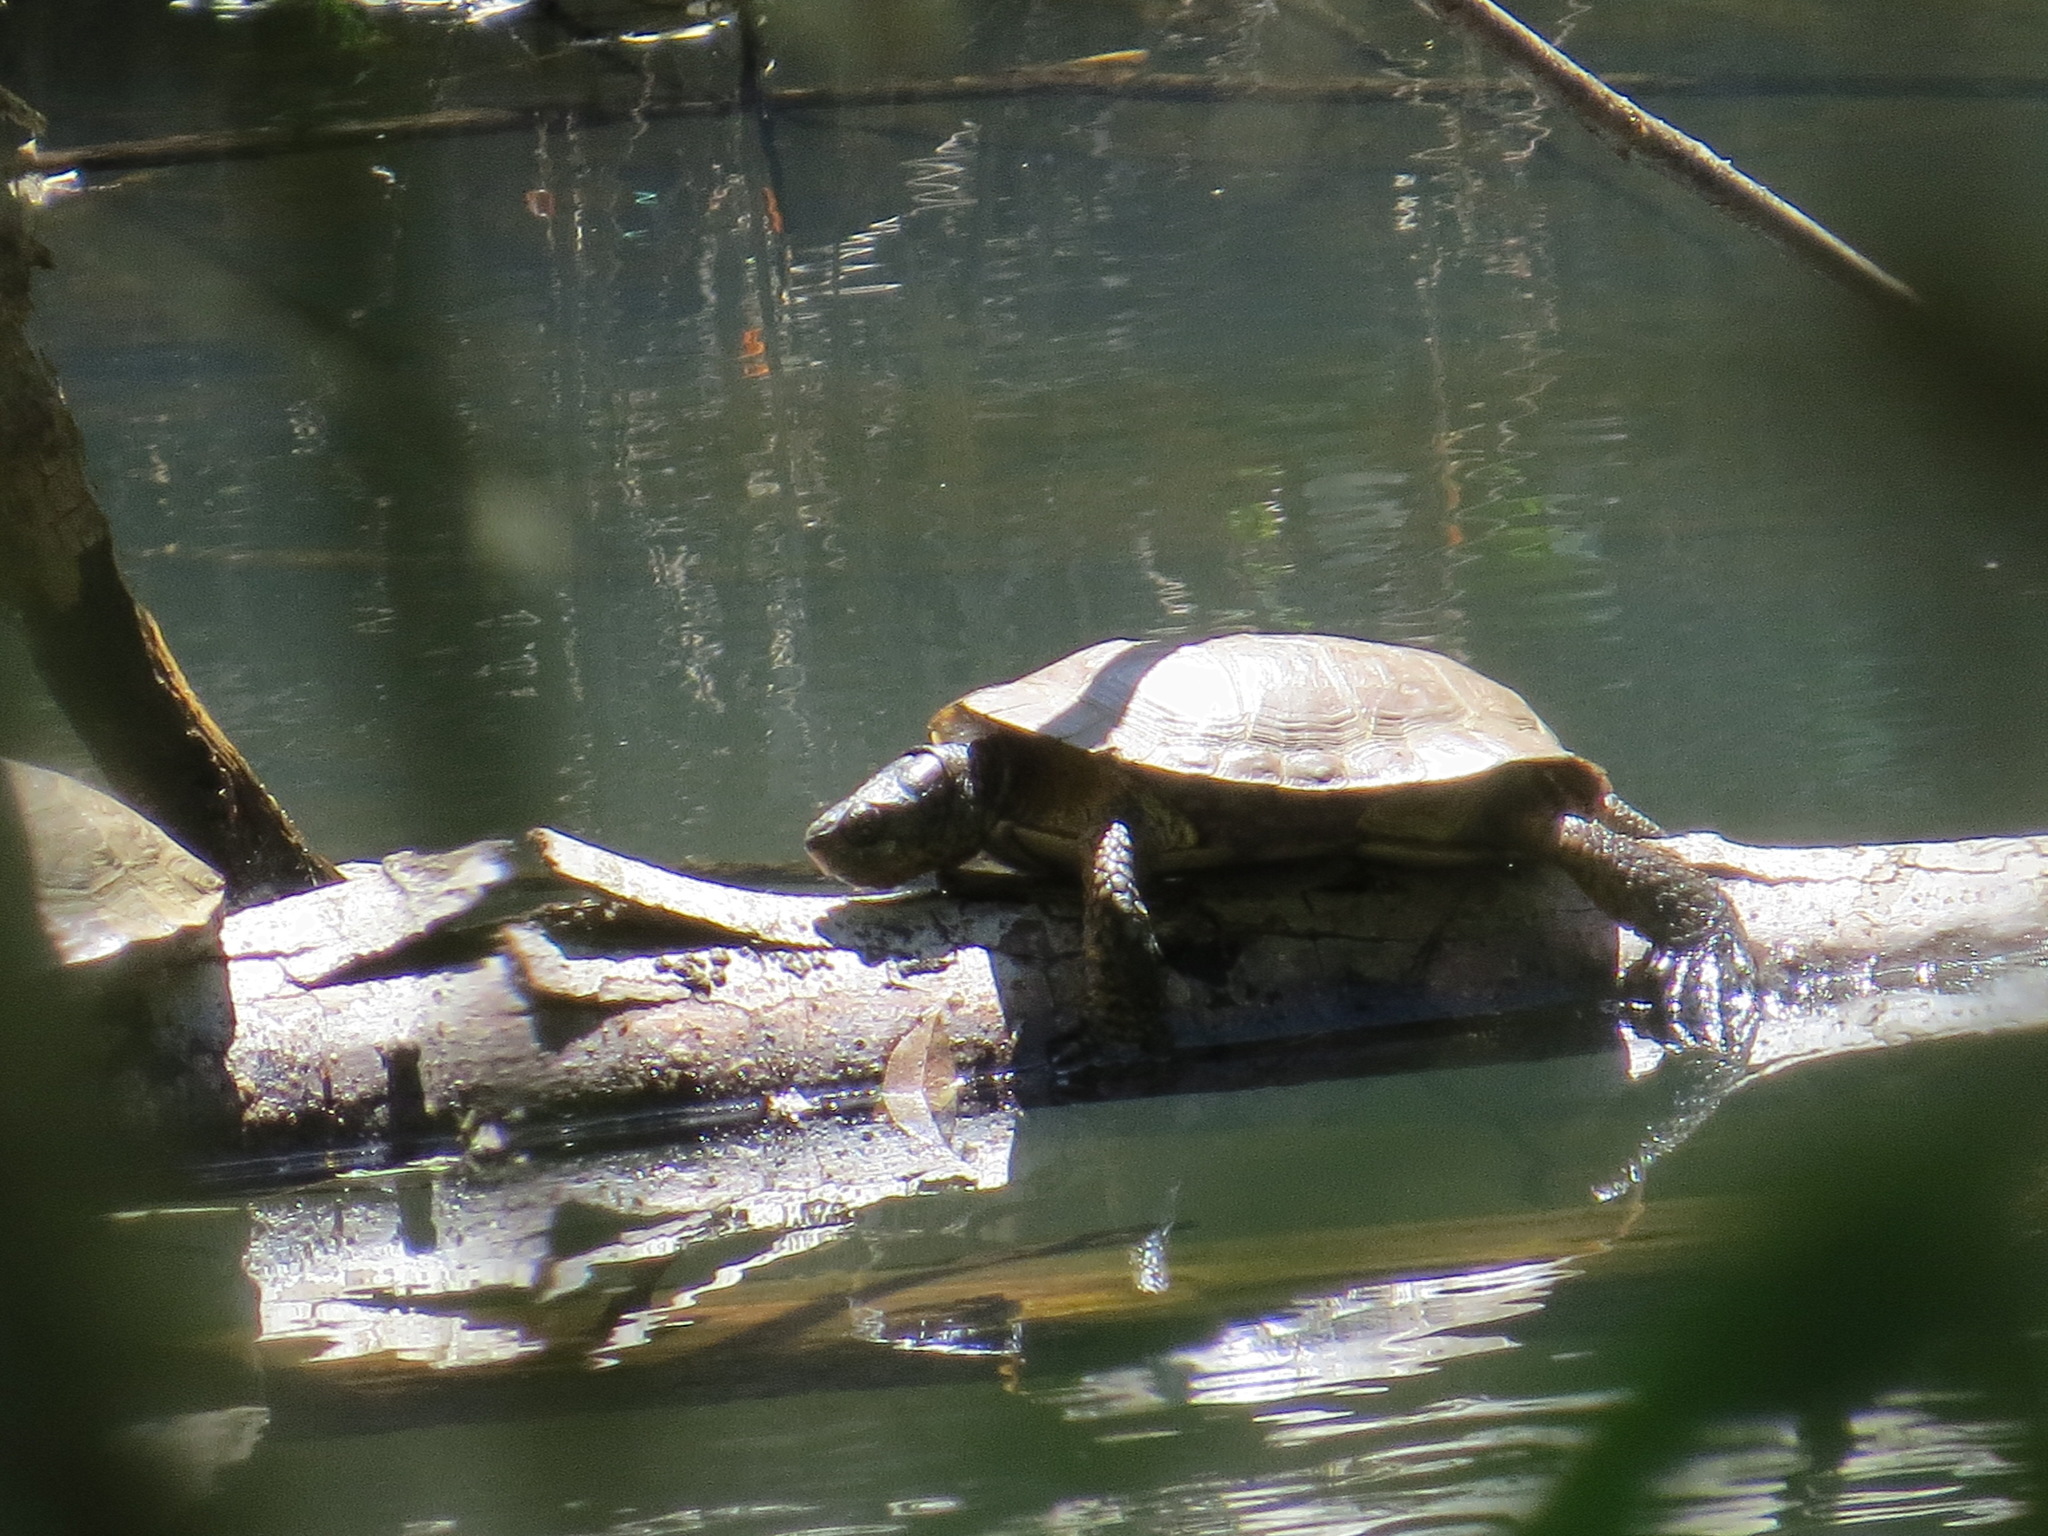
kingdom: Animalia
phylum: Chordata
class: Testudines
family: Emydidae
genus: Actinemys
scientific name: Actinemys marmorata
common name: Western pond turtle
